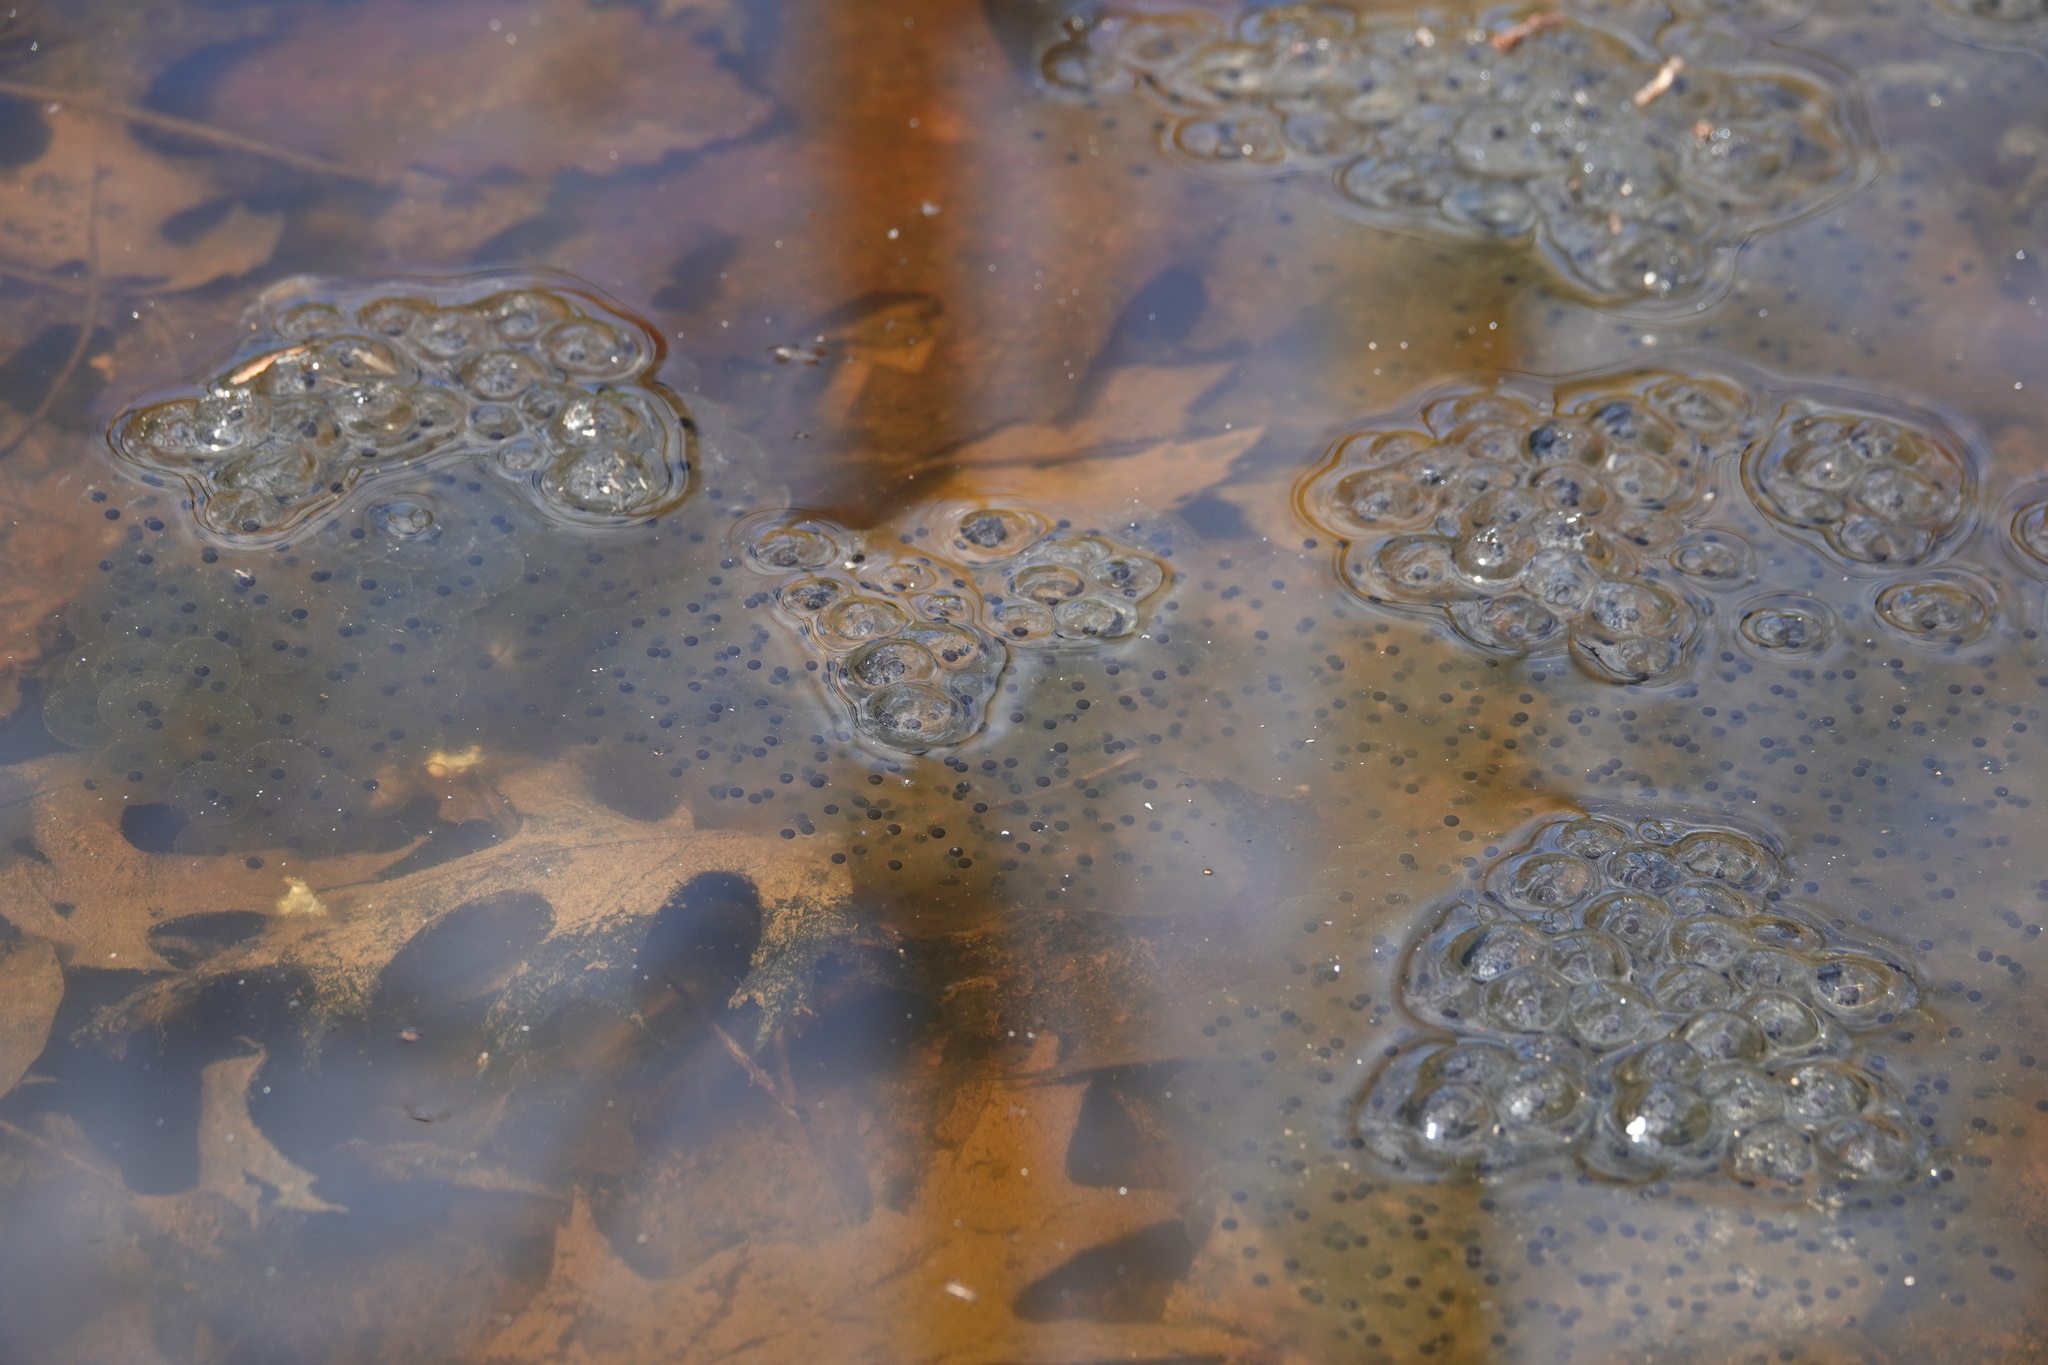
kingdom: Animalia
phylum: Chordata
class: Amphibia
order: Anura
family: Ranidae
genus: Lithobates
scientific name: Lithobates sylvaticus
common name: Wood frog
